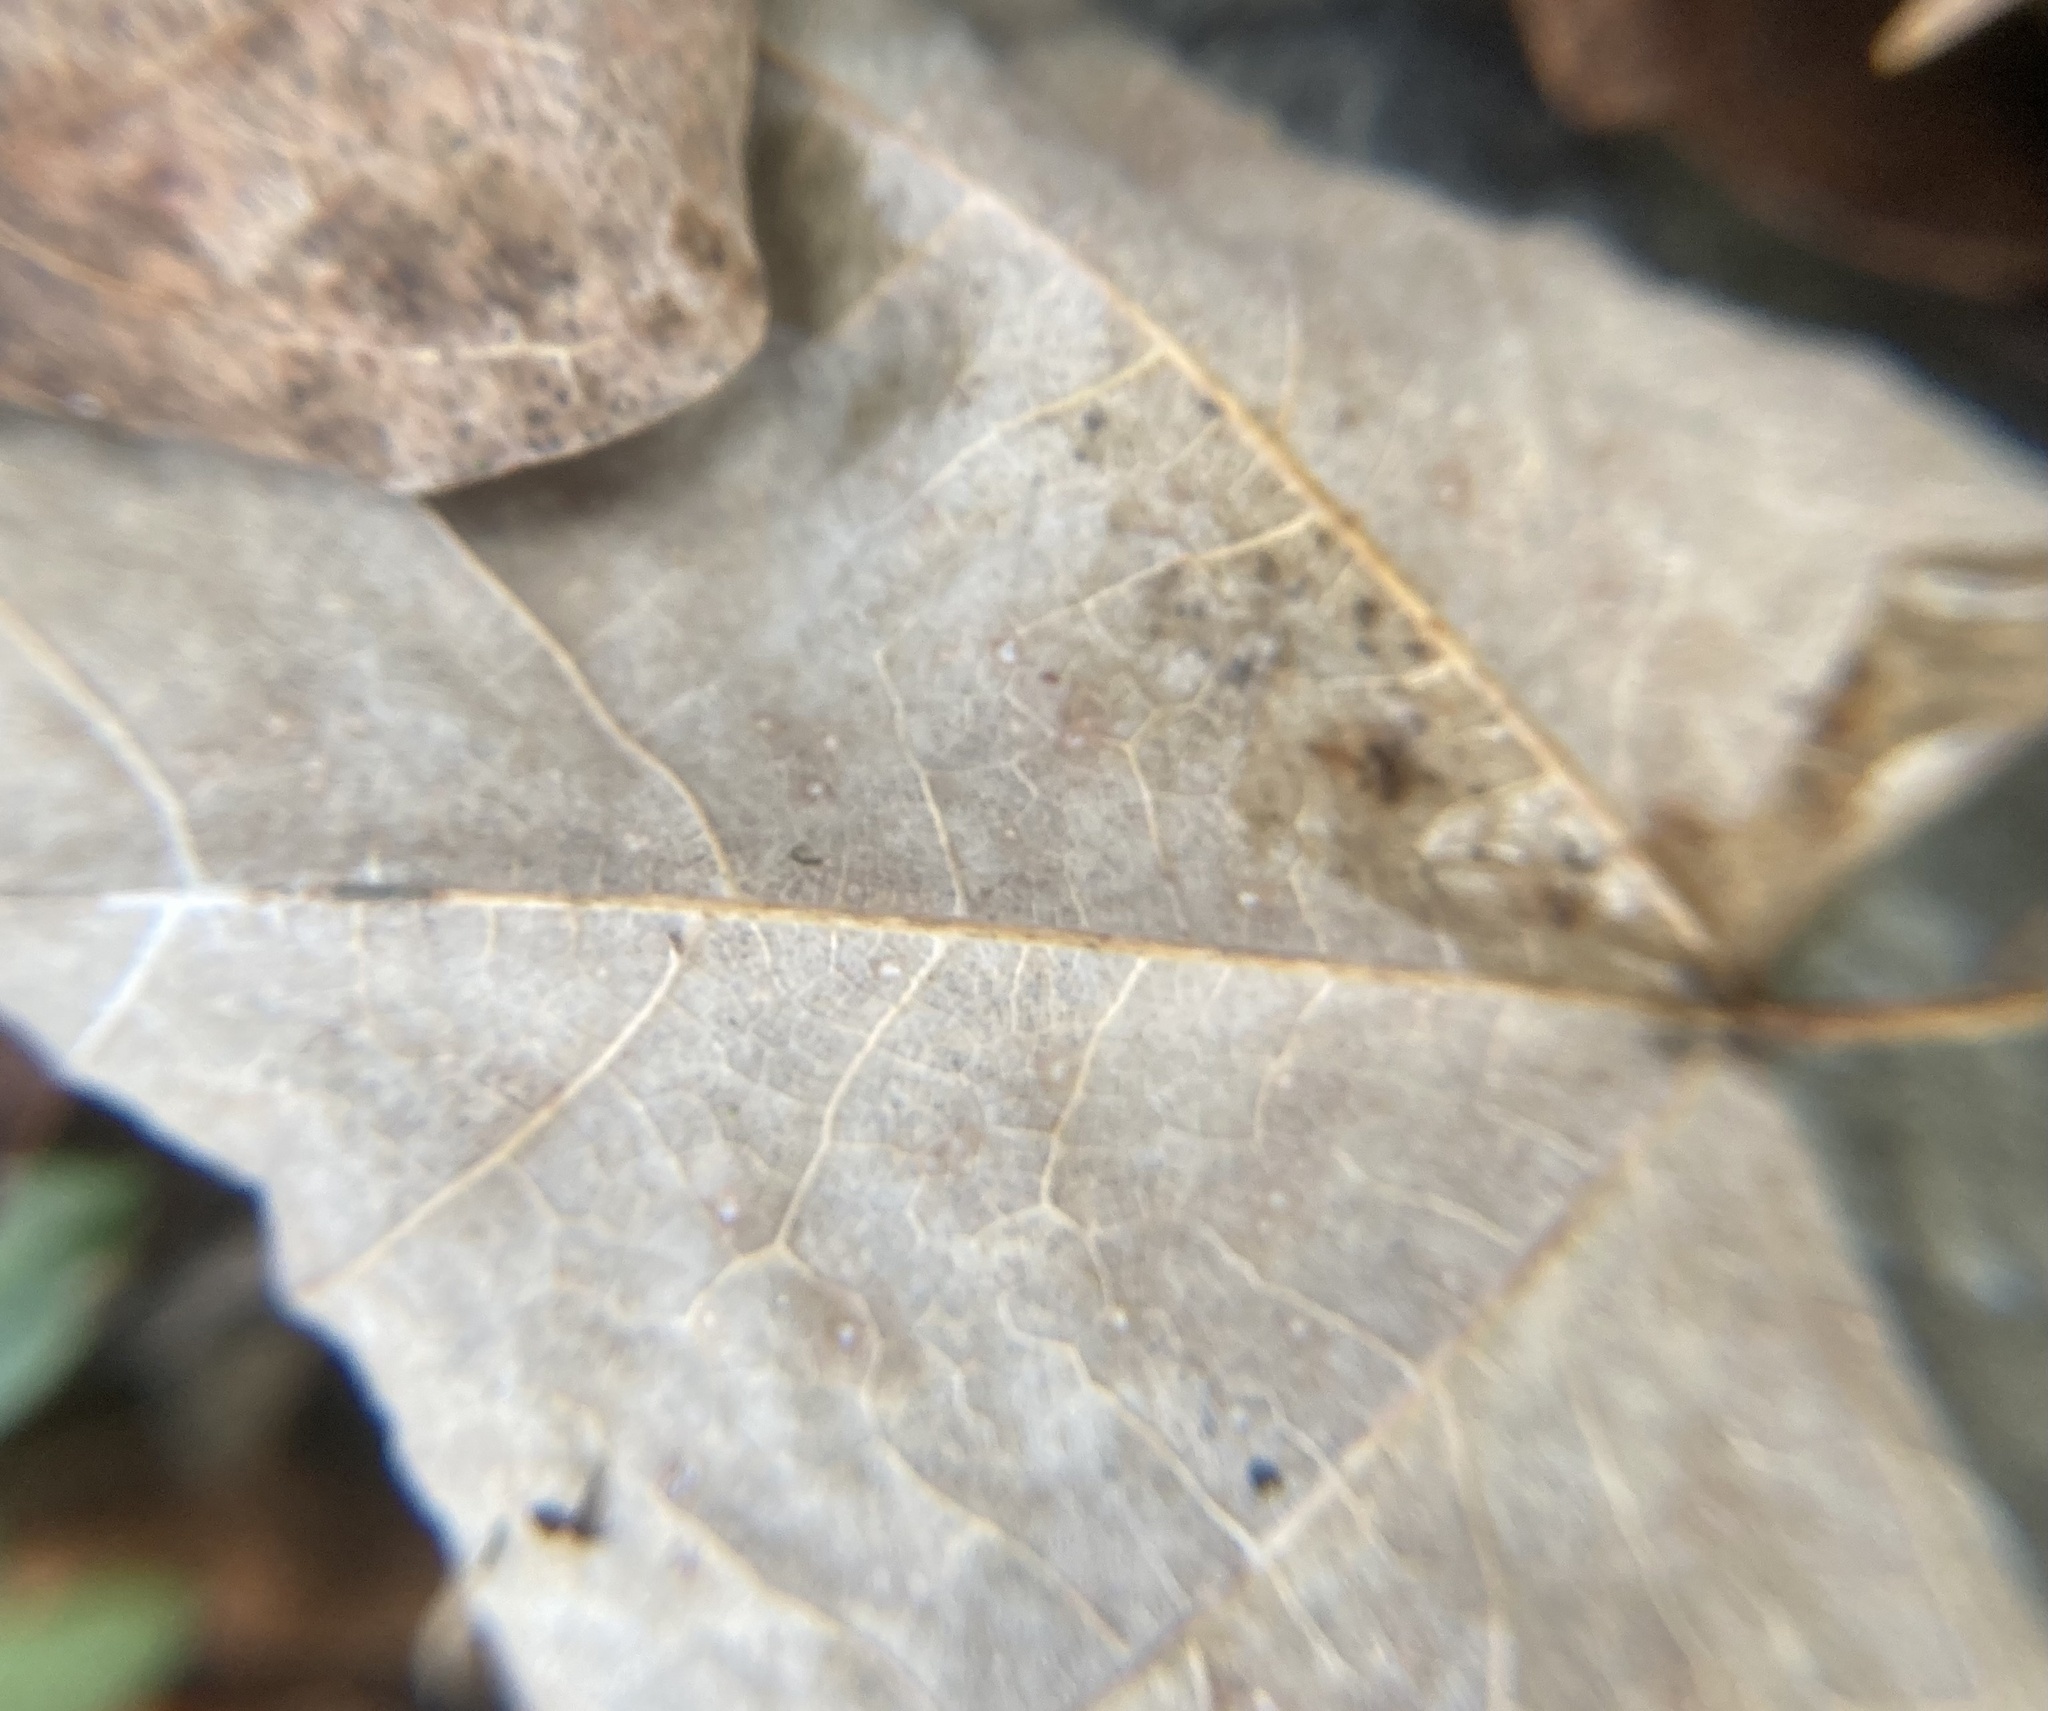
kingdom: Plantae
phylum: Tracheophyta
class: Magnoliopsida
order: Sapindales
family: Sapindaceae
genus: Acer
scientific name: Acer saccharum
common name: Sugar maple
